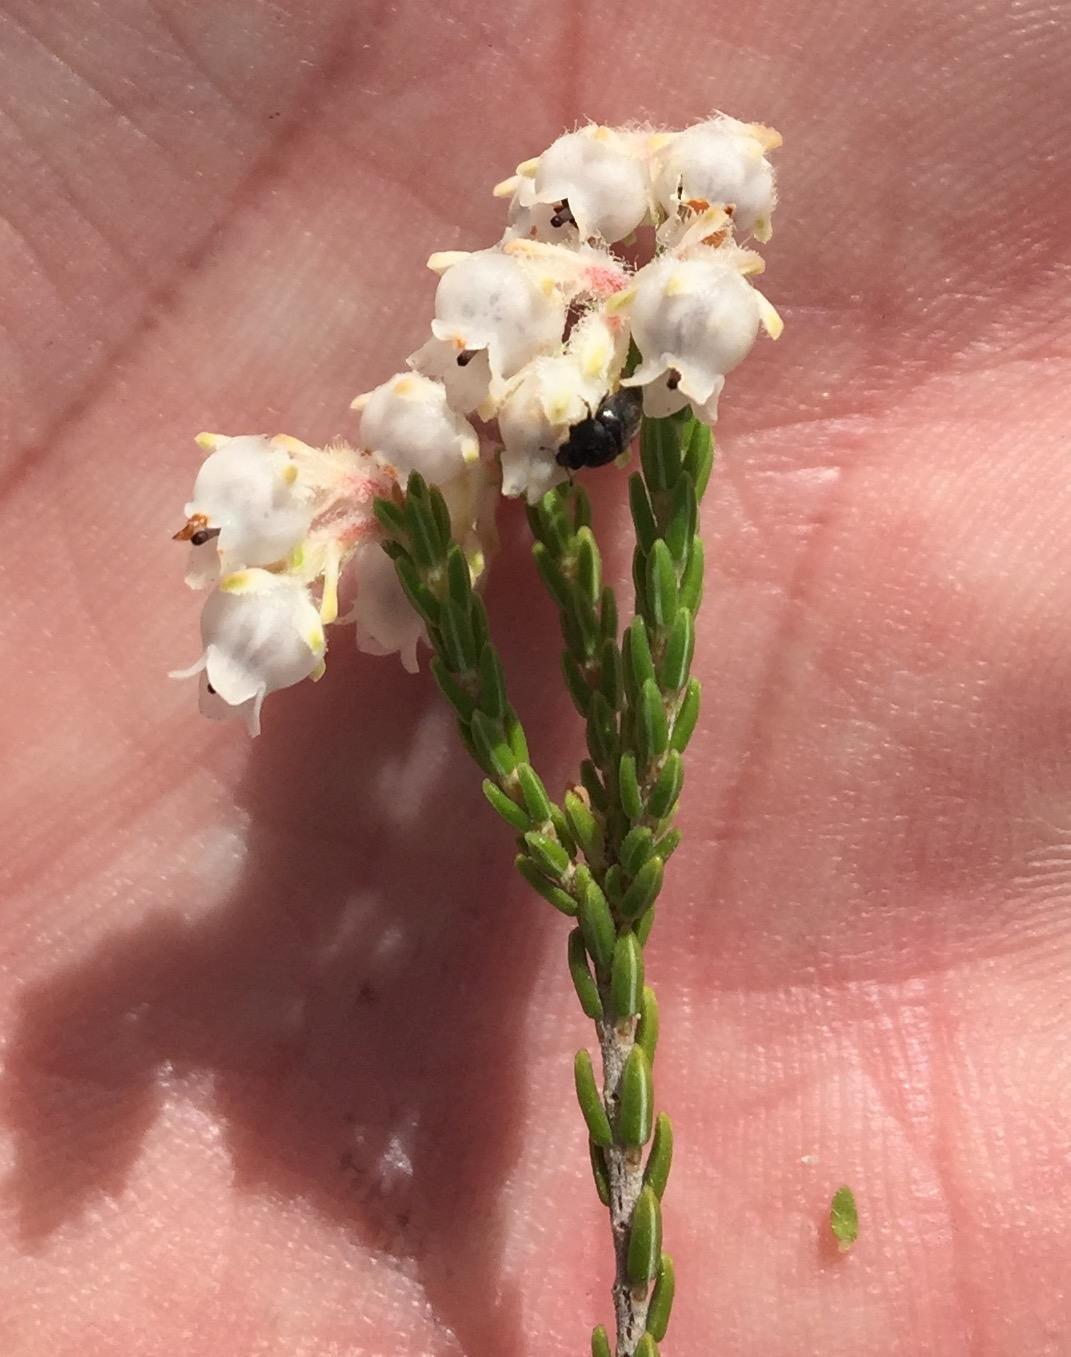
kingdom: Plantae
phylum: Tracheophyta
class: Magnoliopsida
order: Ericales
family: Ericaceae
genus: Erica
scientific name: Erica fimbriata
